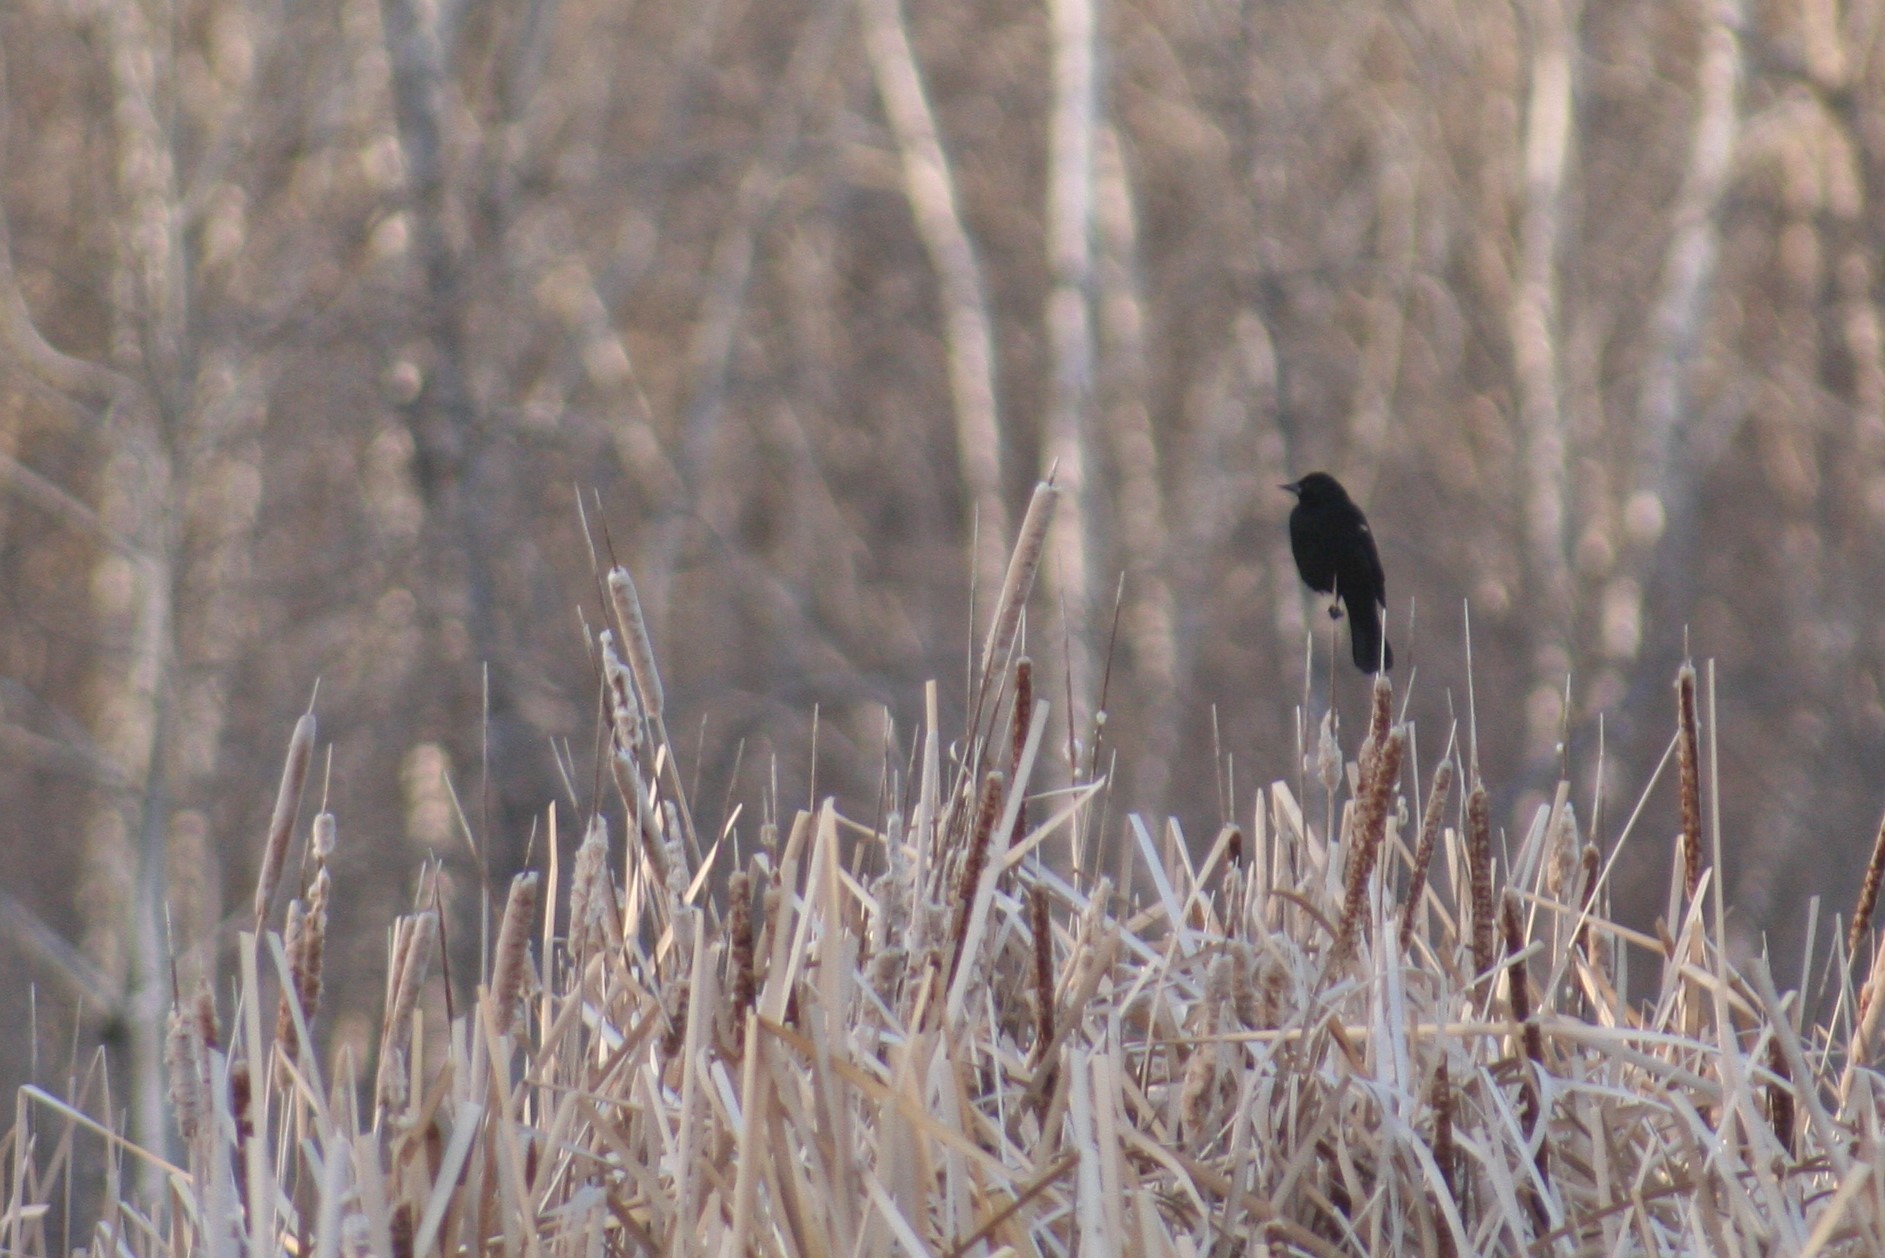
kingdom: Animalia
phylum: Chordata
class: Aves
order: Passeriformes
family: Icteridae
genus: Agelaius
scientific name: Agelaius phoeniceus
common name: Red-winged blackbird
